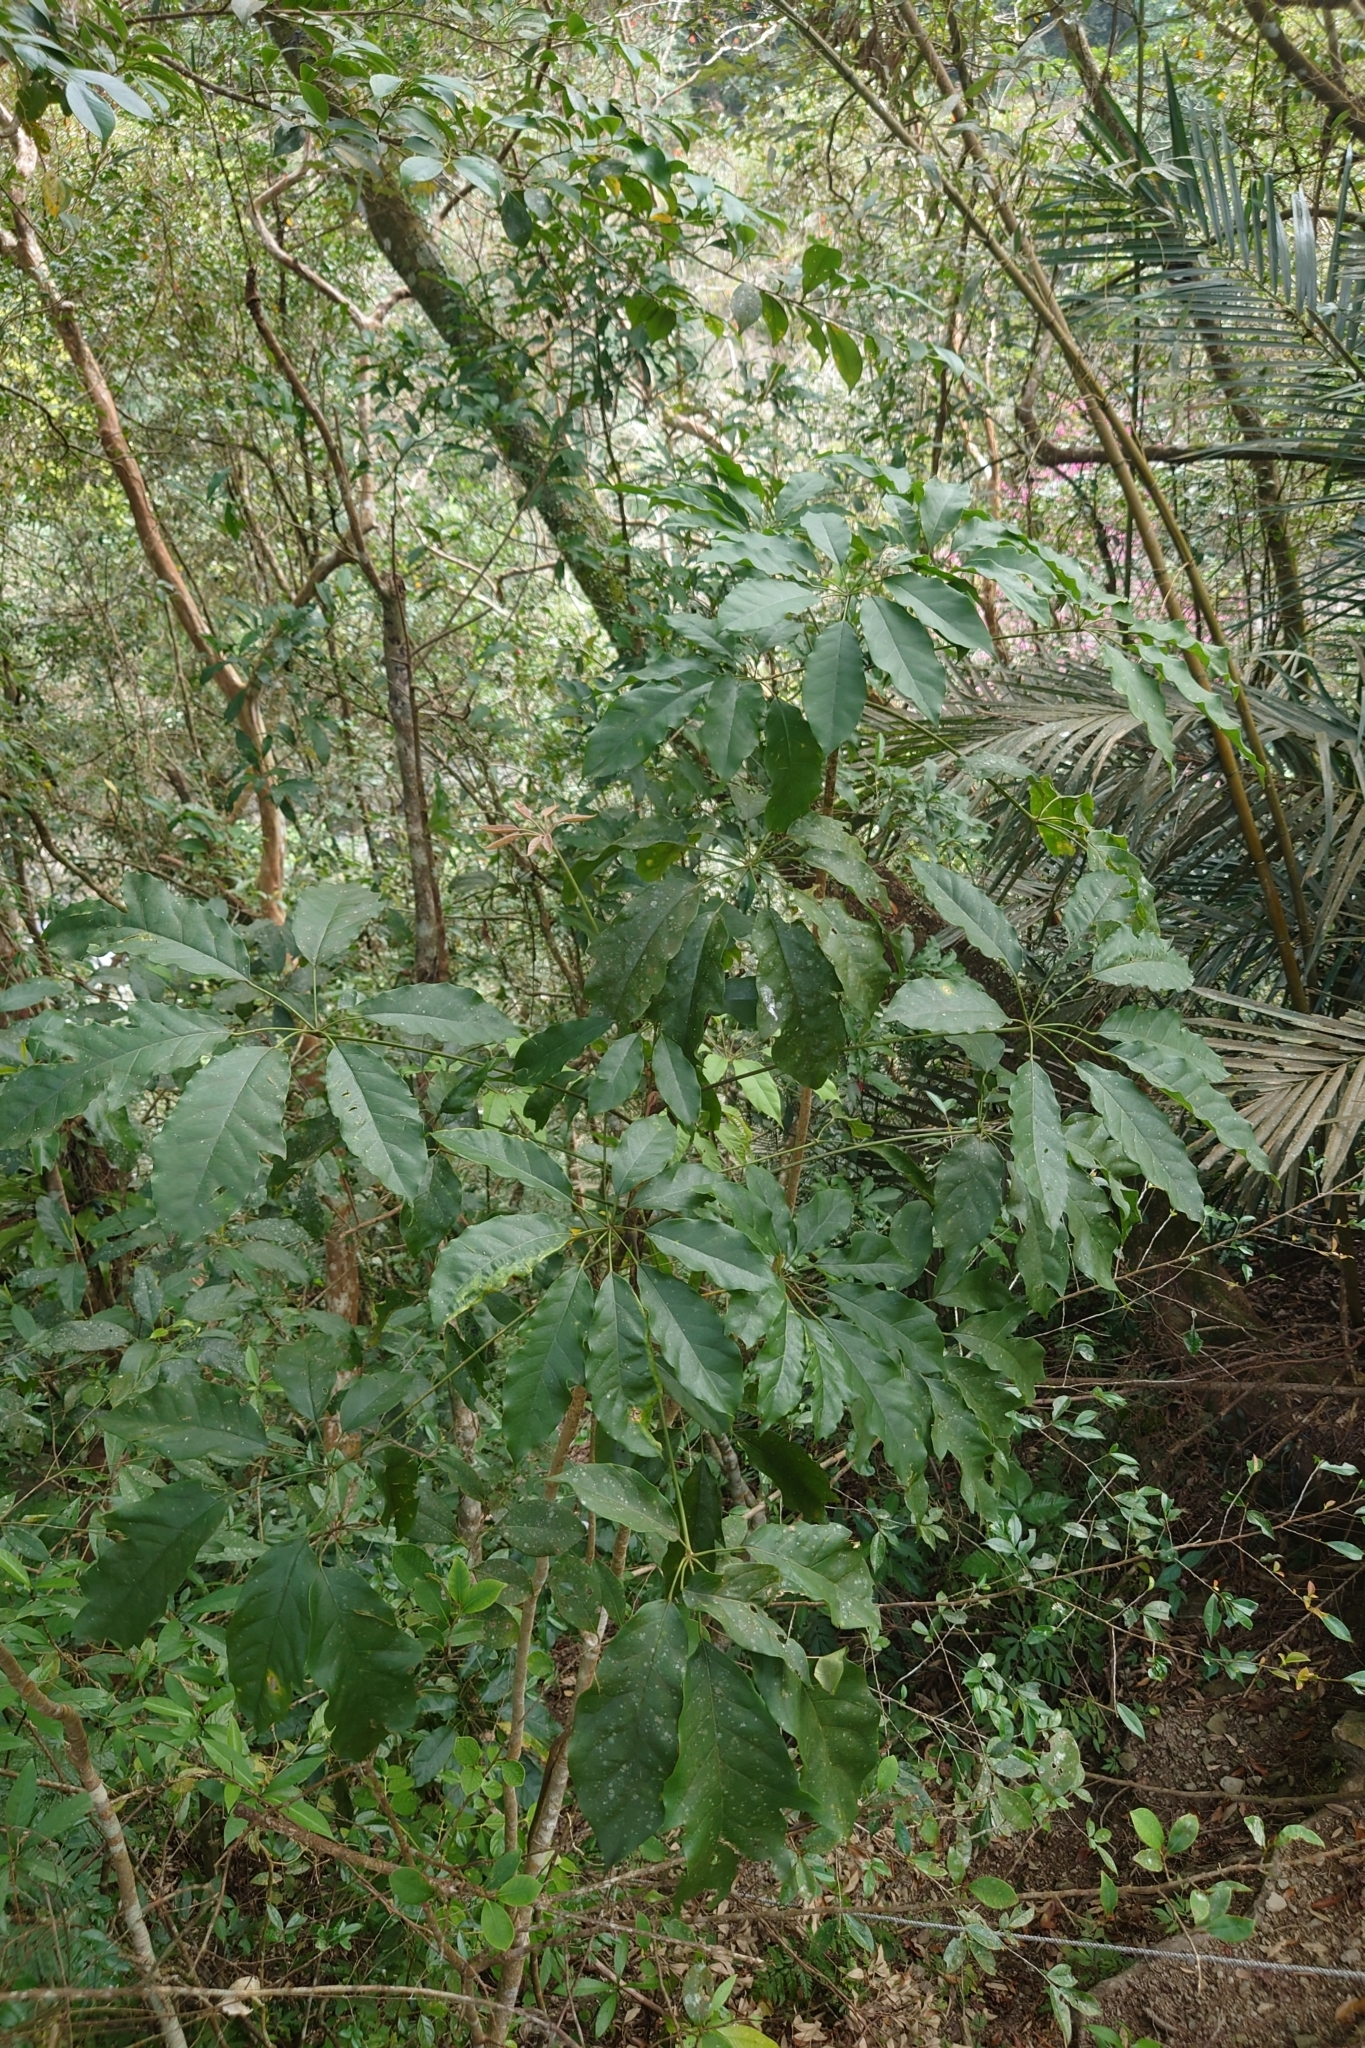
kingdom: Plantae
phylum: Tracheophyta
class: Magnoliopsida
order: Apiales
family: Araliaceae
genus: Heptapleurum
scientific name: Heptapleurum heptaphyllum
